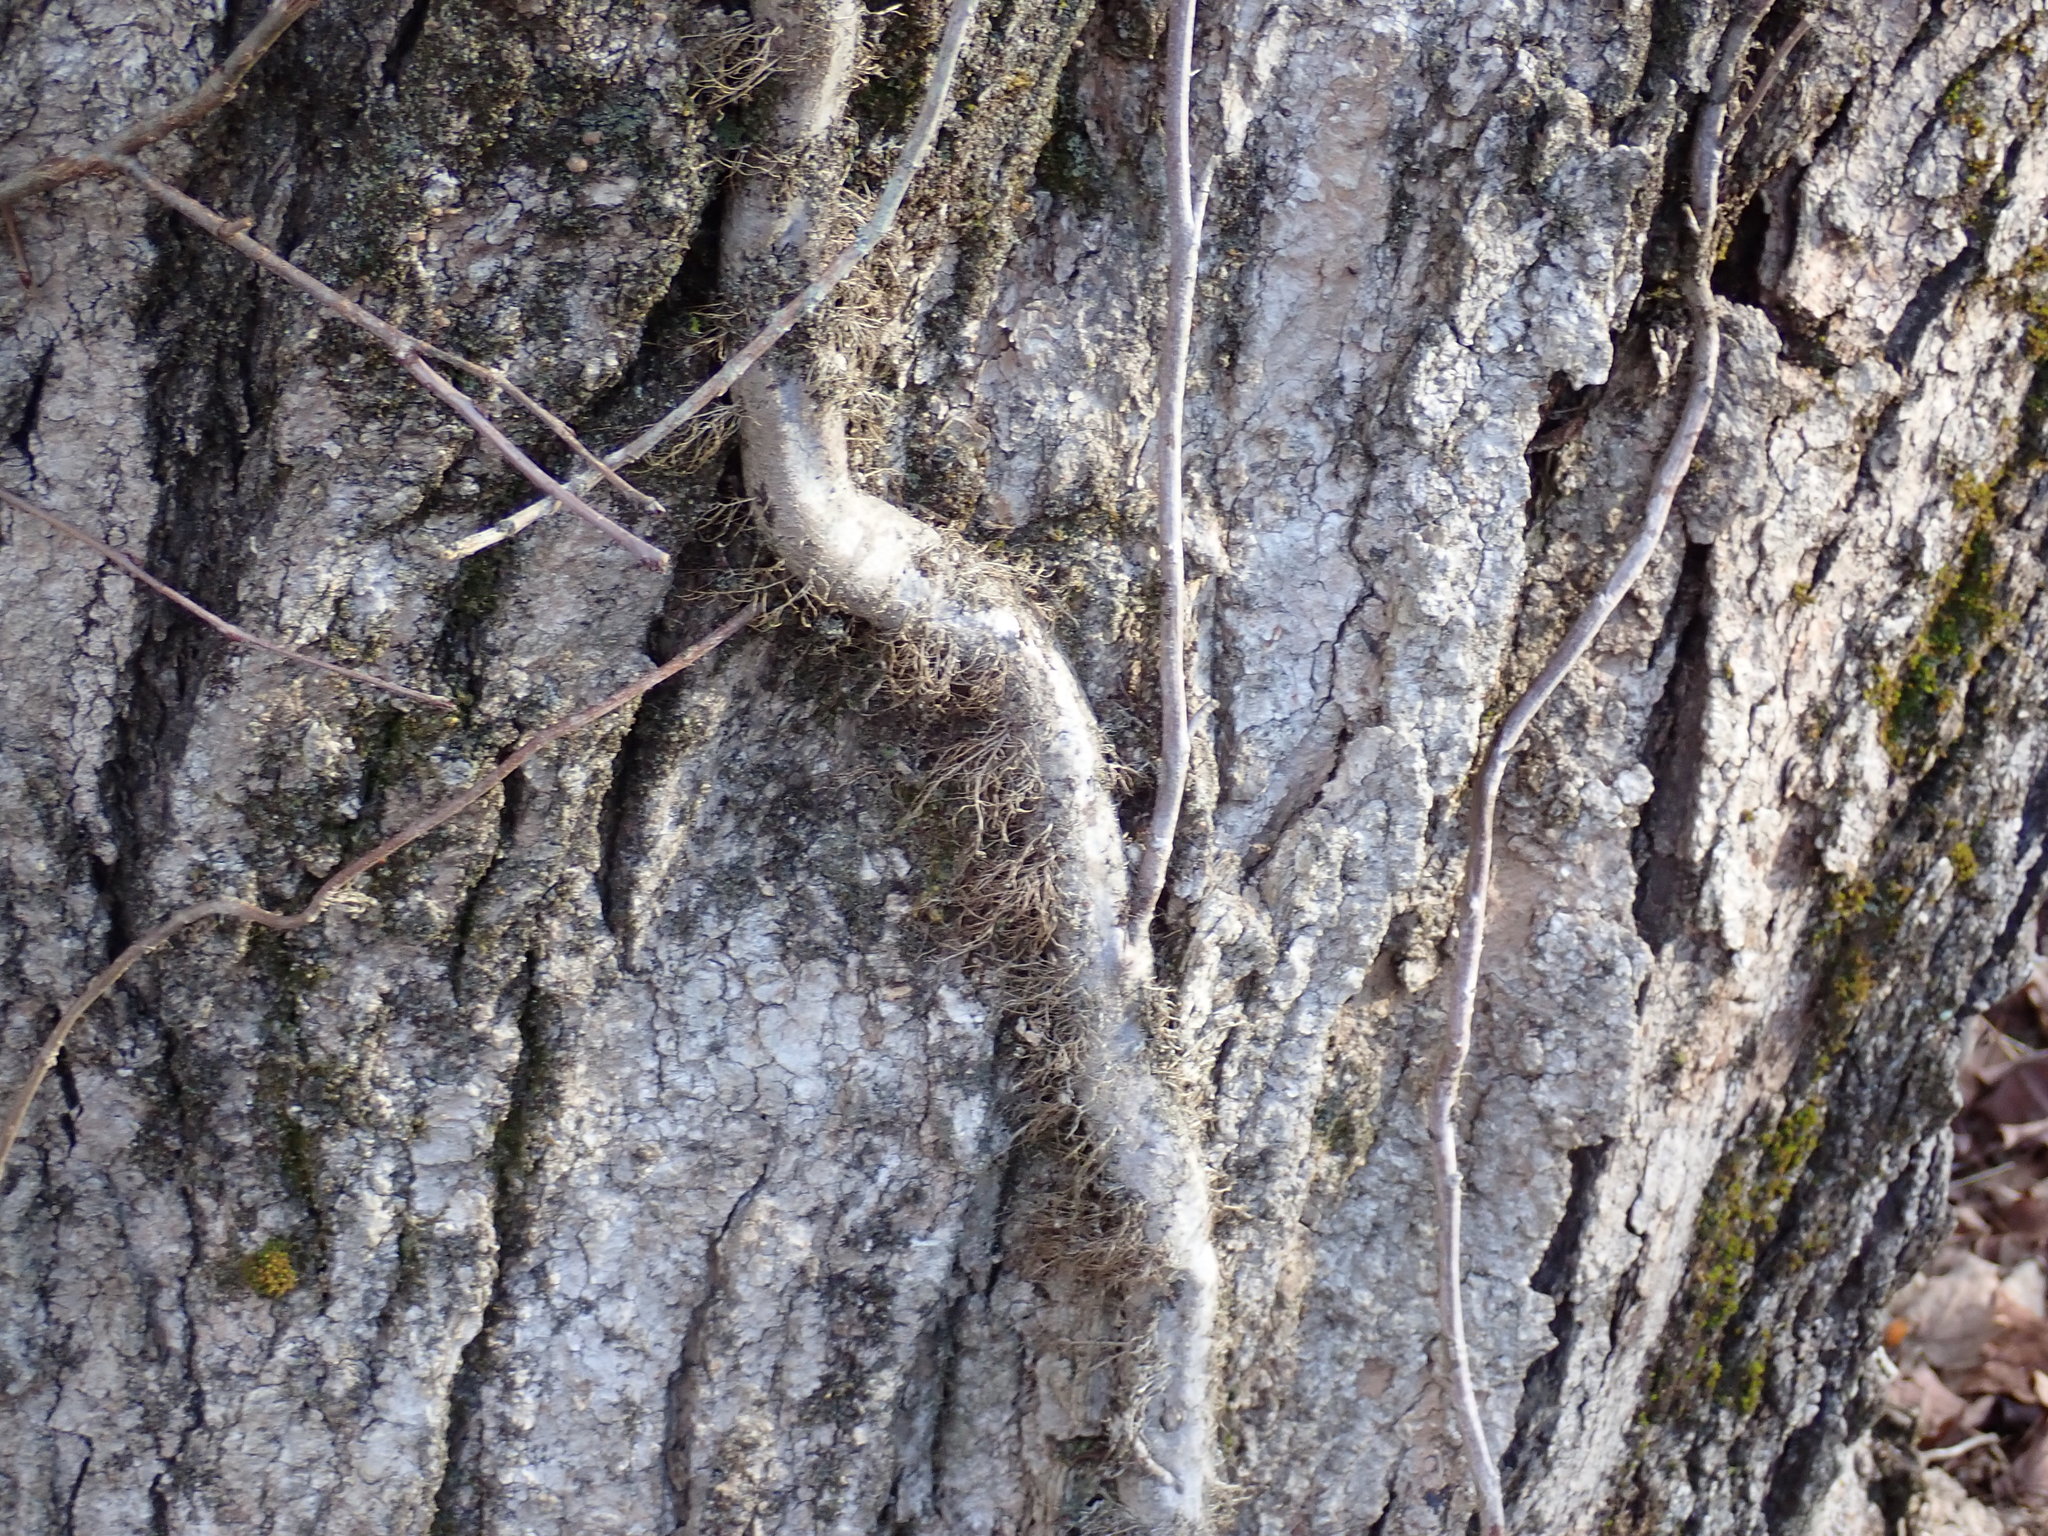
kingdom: Plantae
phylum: Tracheophyta
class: Magnoliopsida
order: Sapindales
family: Anacardiaceae
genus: Toxicodendron
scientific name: Toxicodendron radicans
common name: Poison ivy
